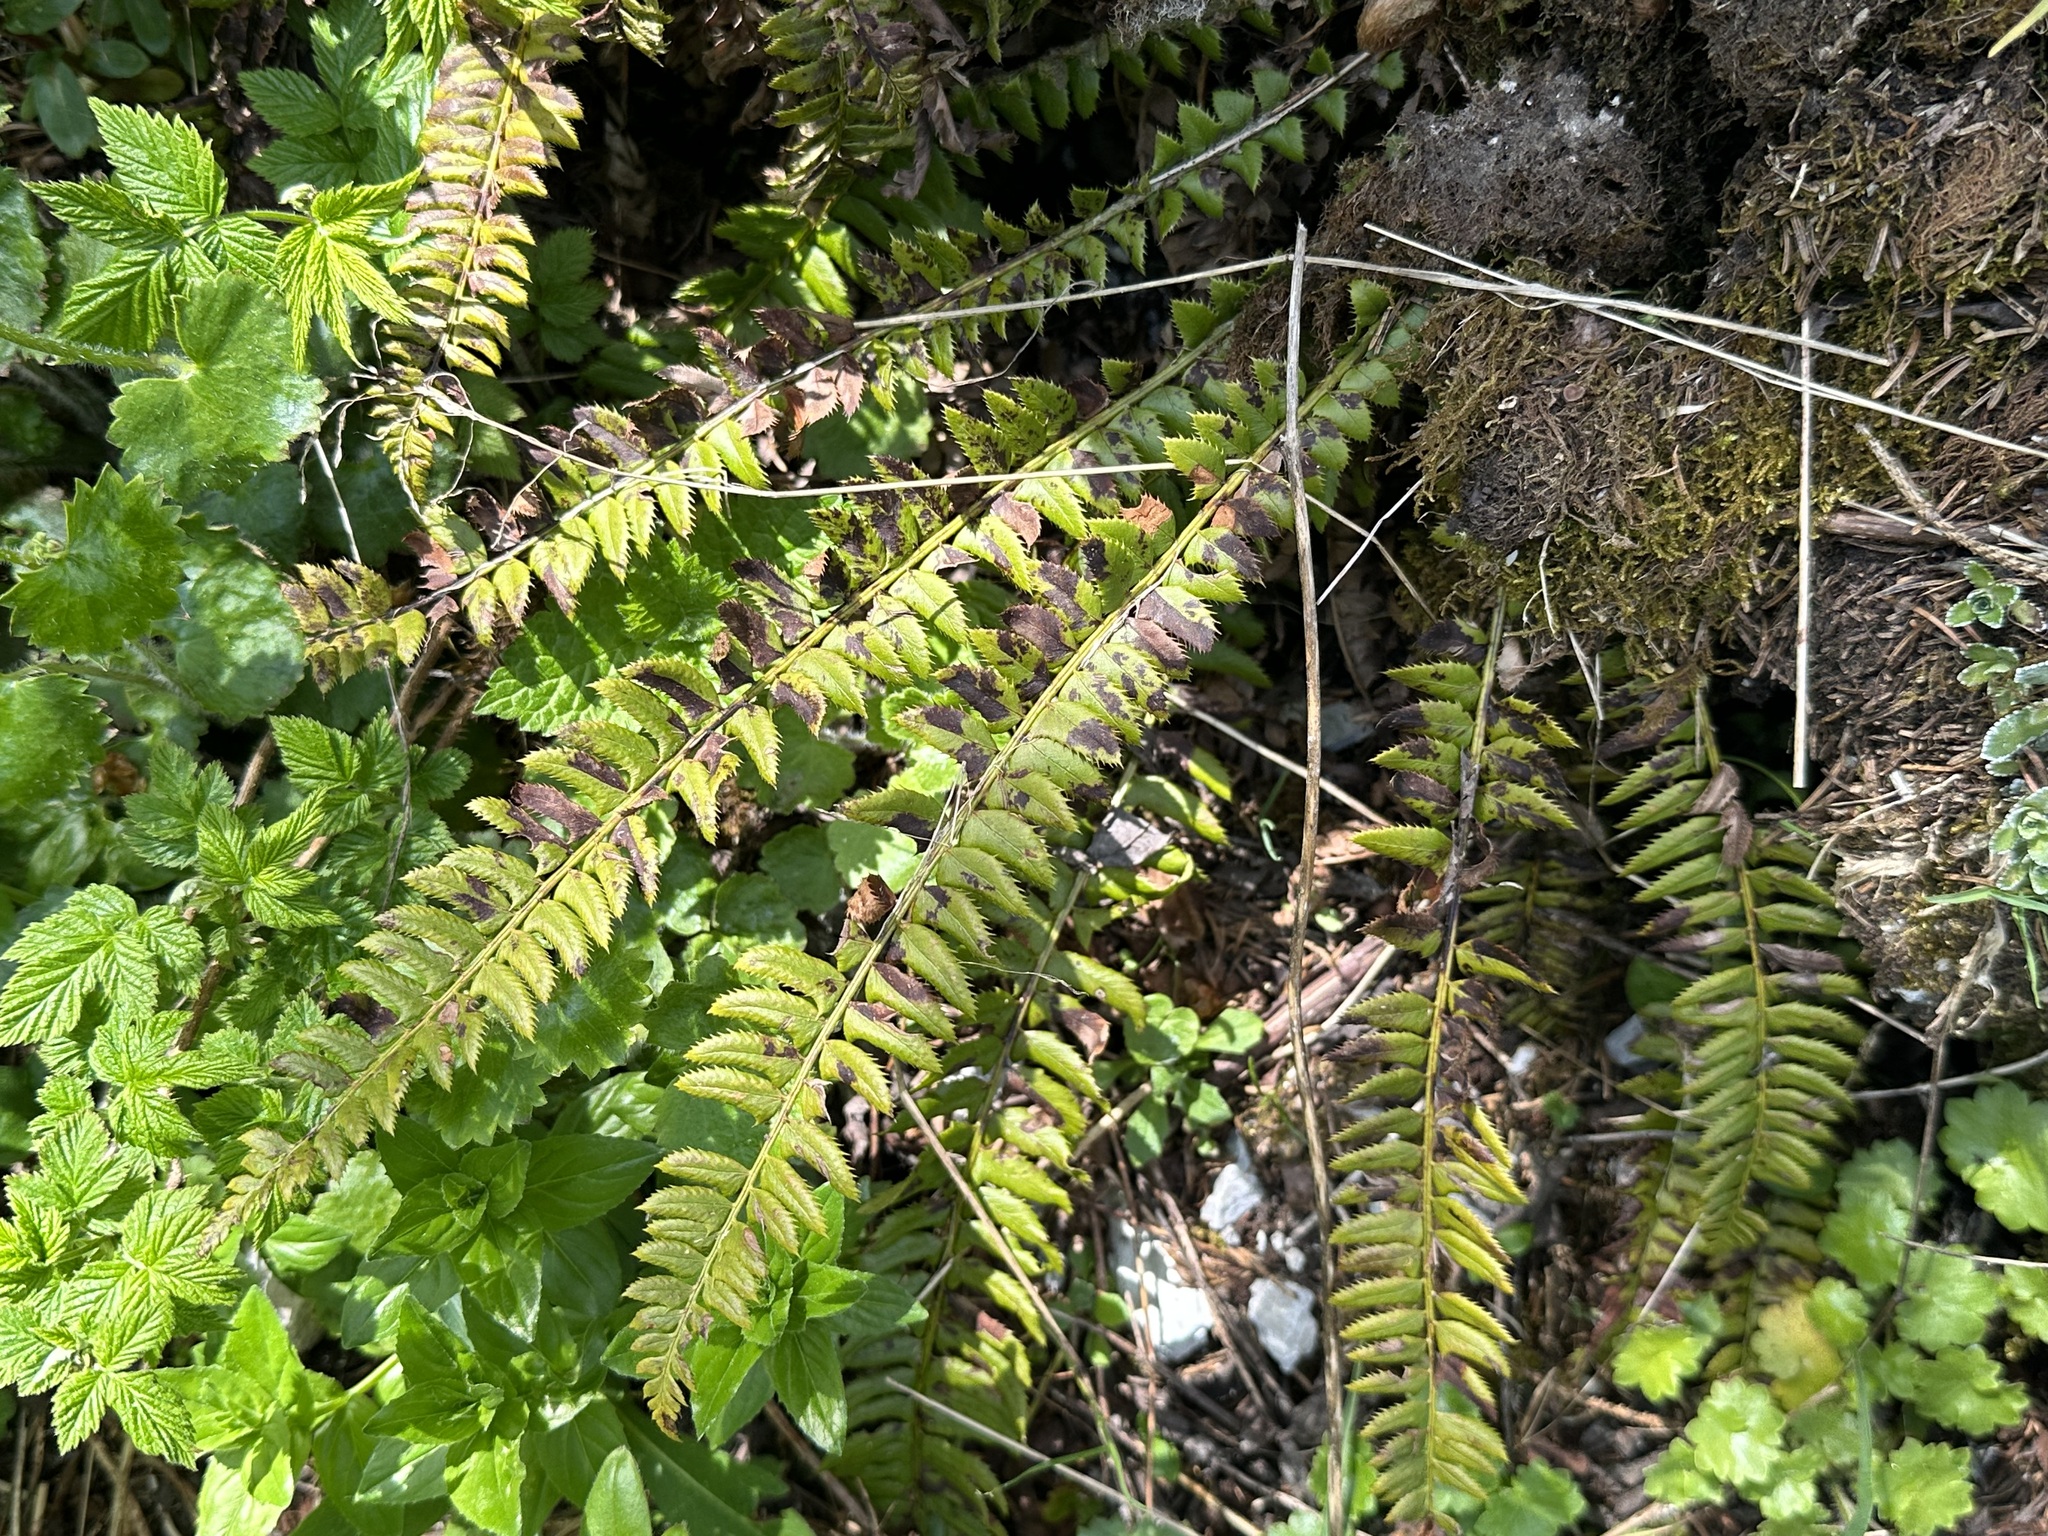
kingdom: Plantae
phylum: Tracheophyta
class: Polypodiopsida
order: Polypodiales
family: Dryopteridaceae
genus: Polystichum
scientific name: Polystichum lonchitis
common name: Holly fern
